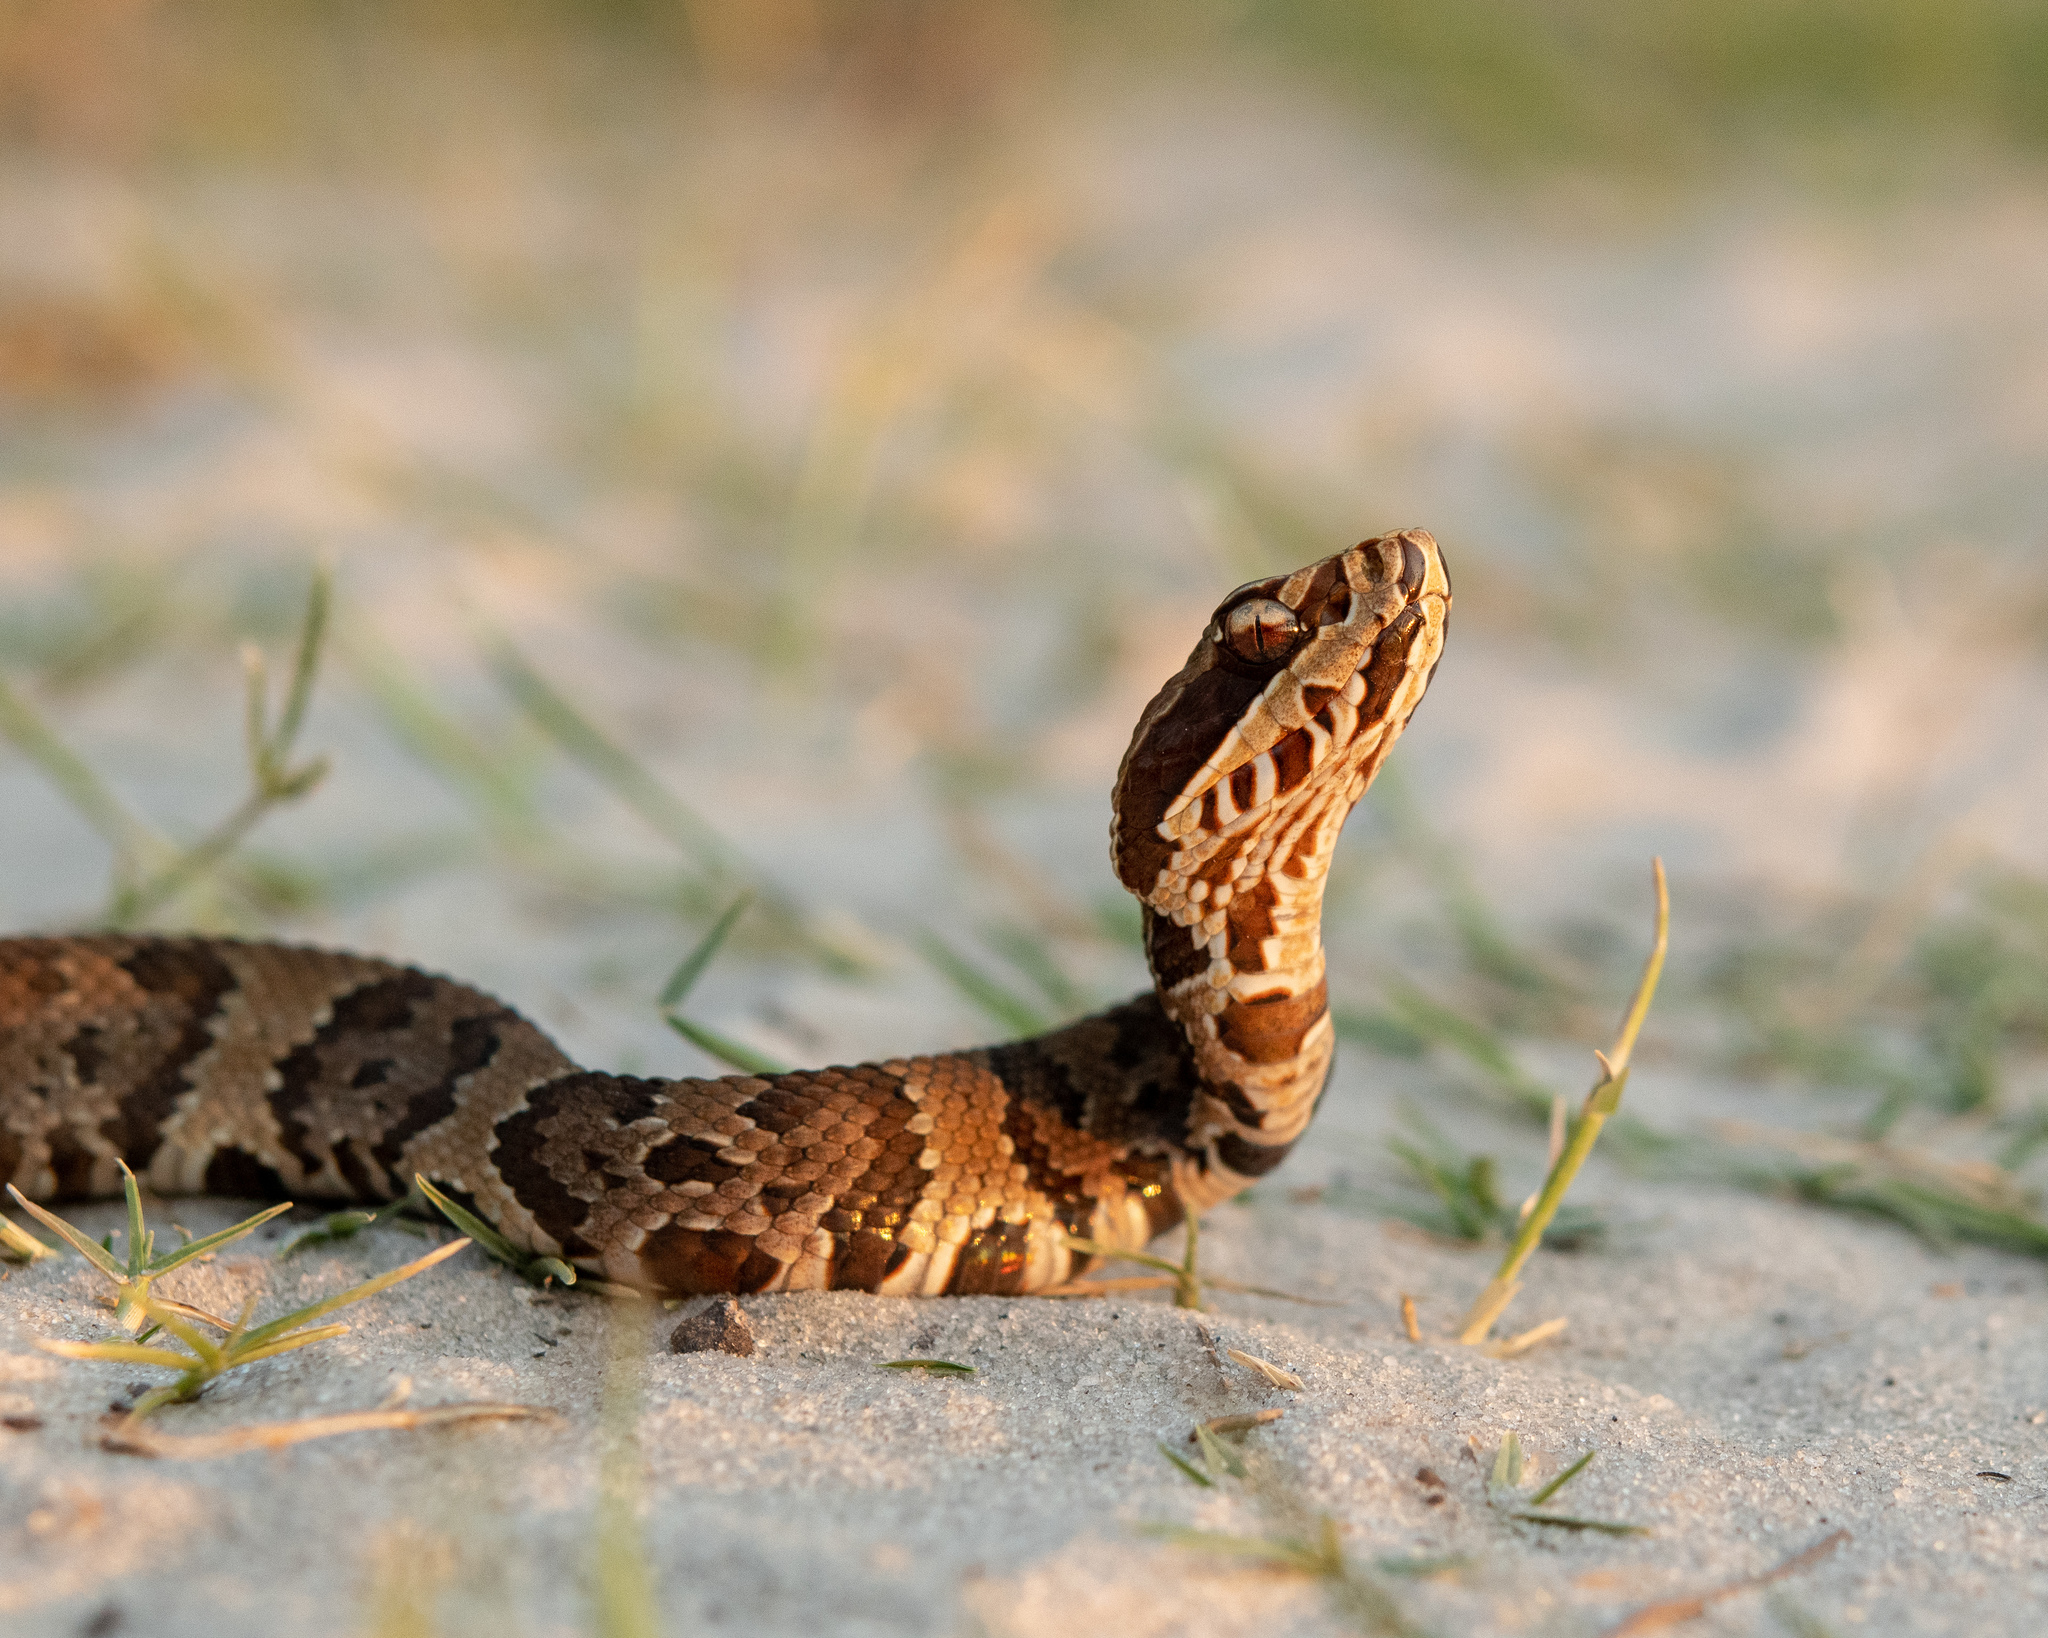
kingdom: Animalia
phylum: Chordata
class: Squamata
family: Viperidae
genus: Agkistrodon
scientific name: Agkistrodon conanti
